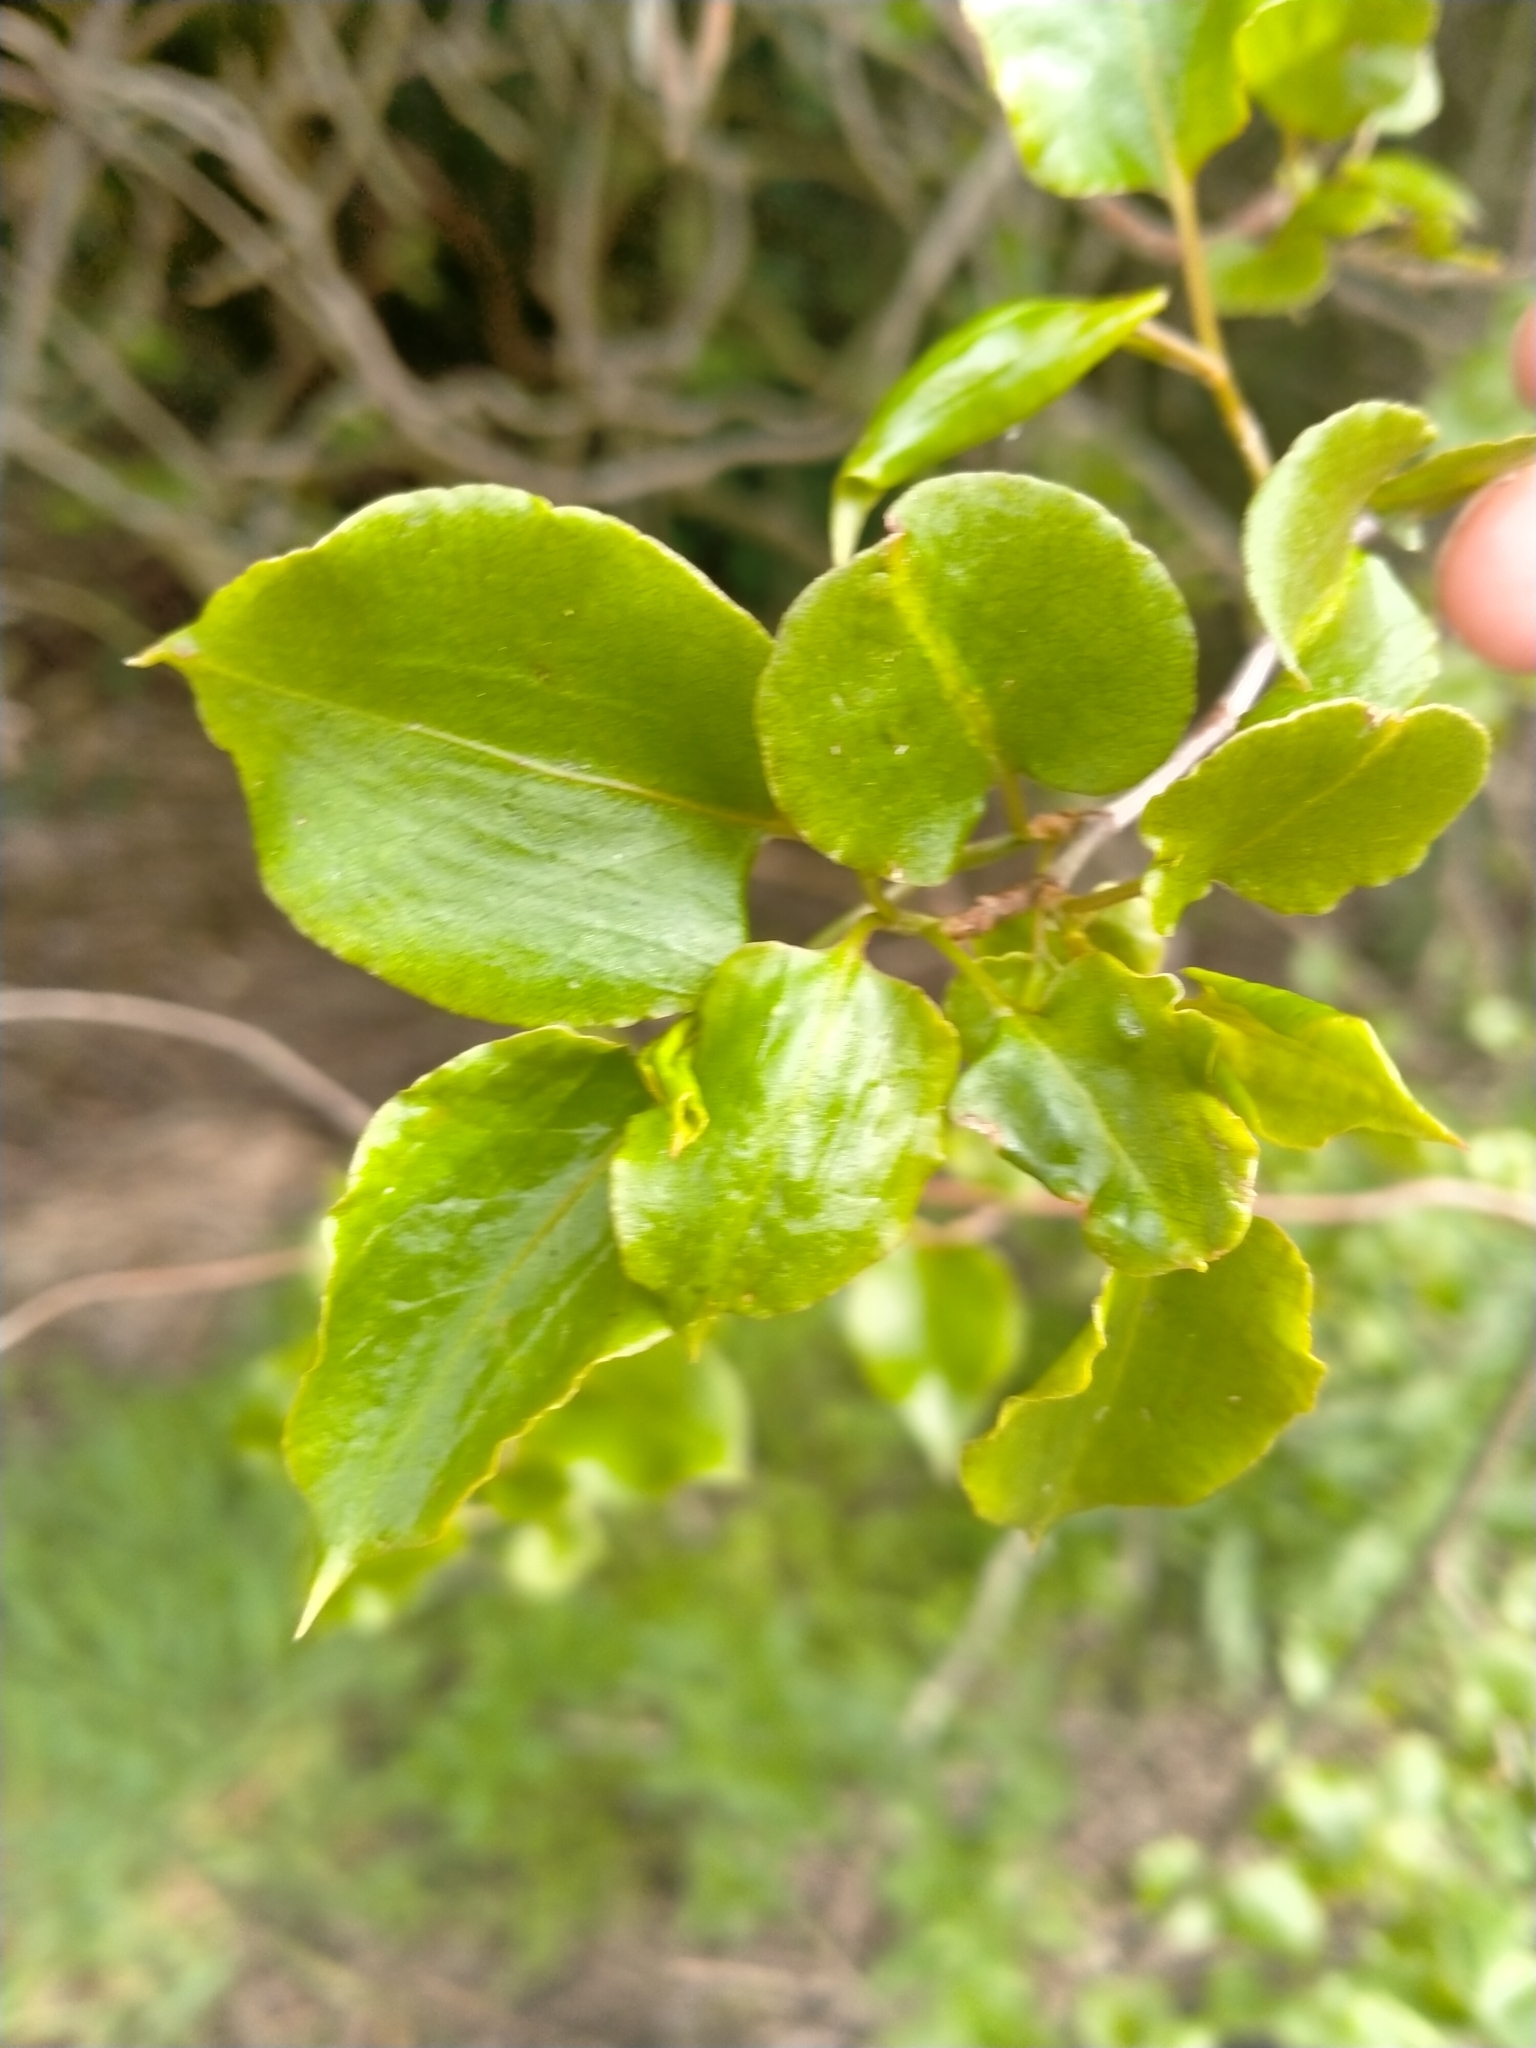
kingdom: Plantae
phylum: Tracheophyta
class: Magnoliopsida
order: Caryophyllales
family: Polygonaceae
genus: Muehlenbeckia
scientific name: Muehlenbeckia australis
